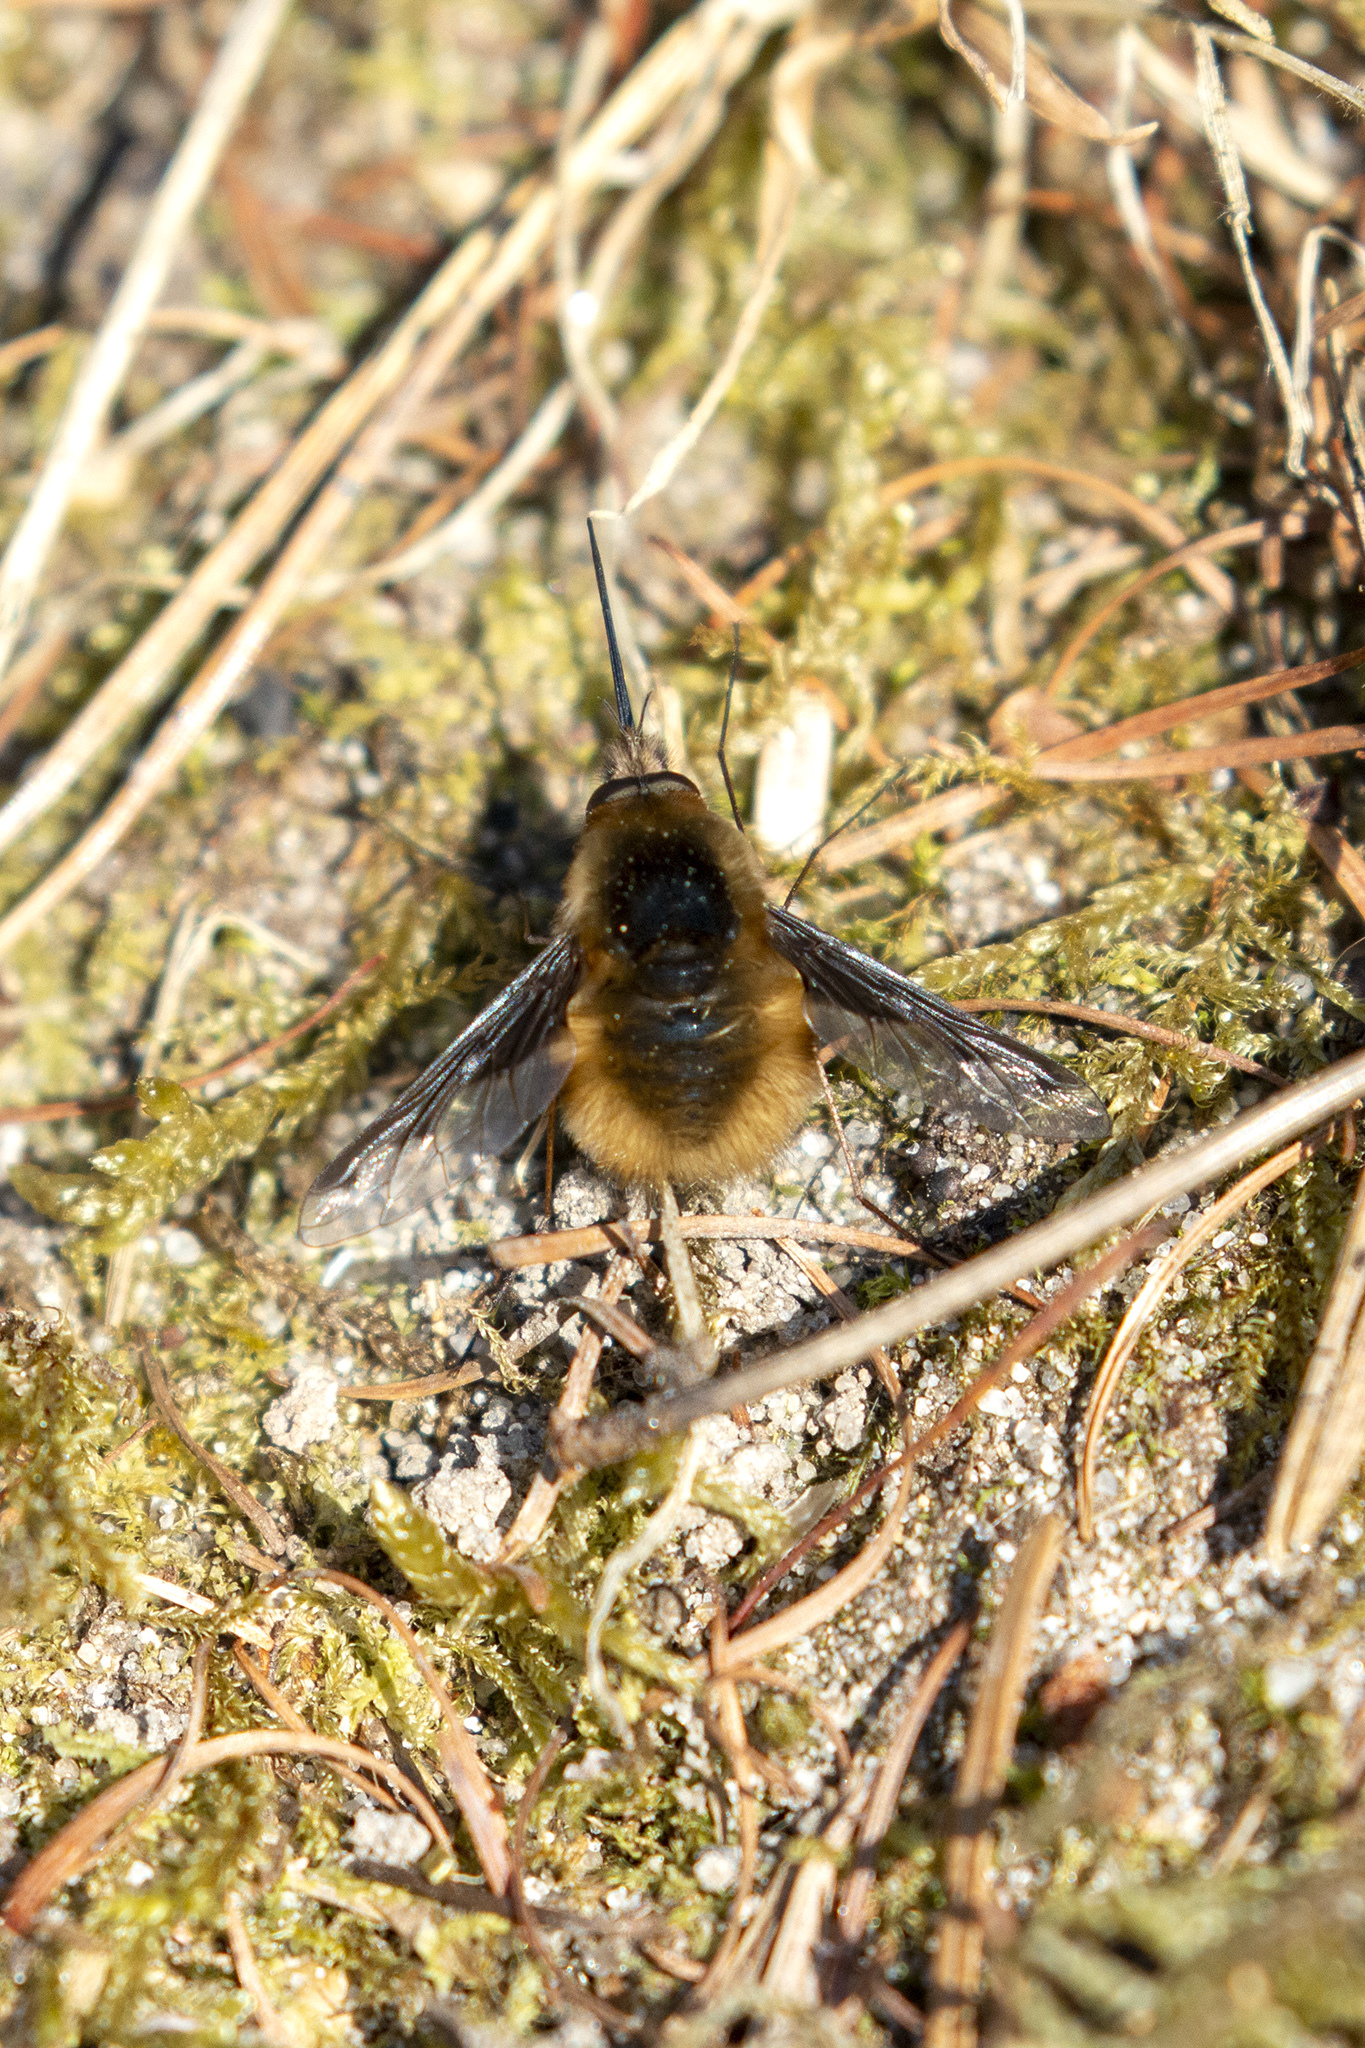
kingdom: Animalia
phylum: Arthropoda
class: Insecta
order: Diptera
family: Bombyliidae
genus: Bombylius
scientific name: Bombylius major
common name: Bee fly
